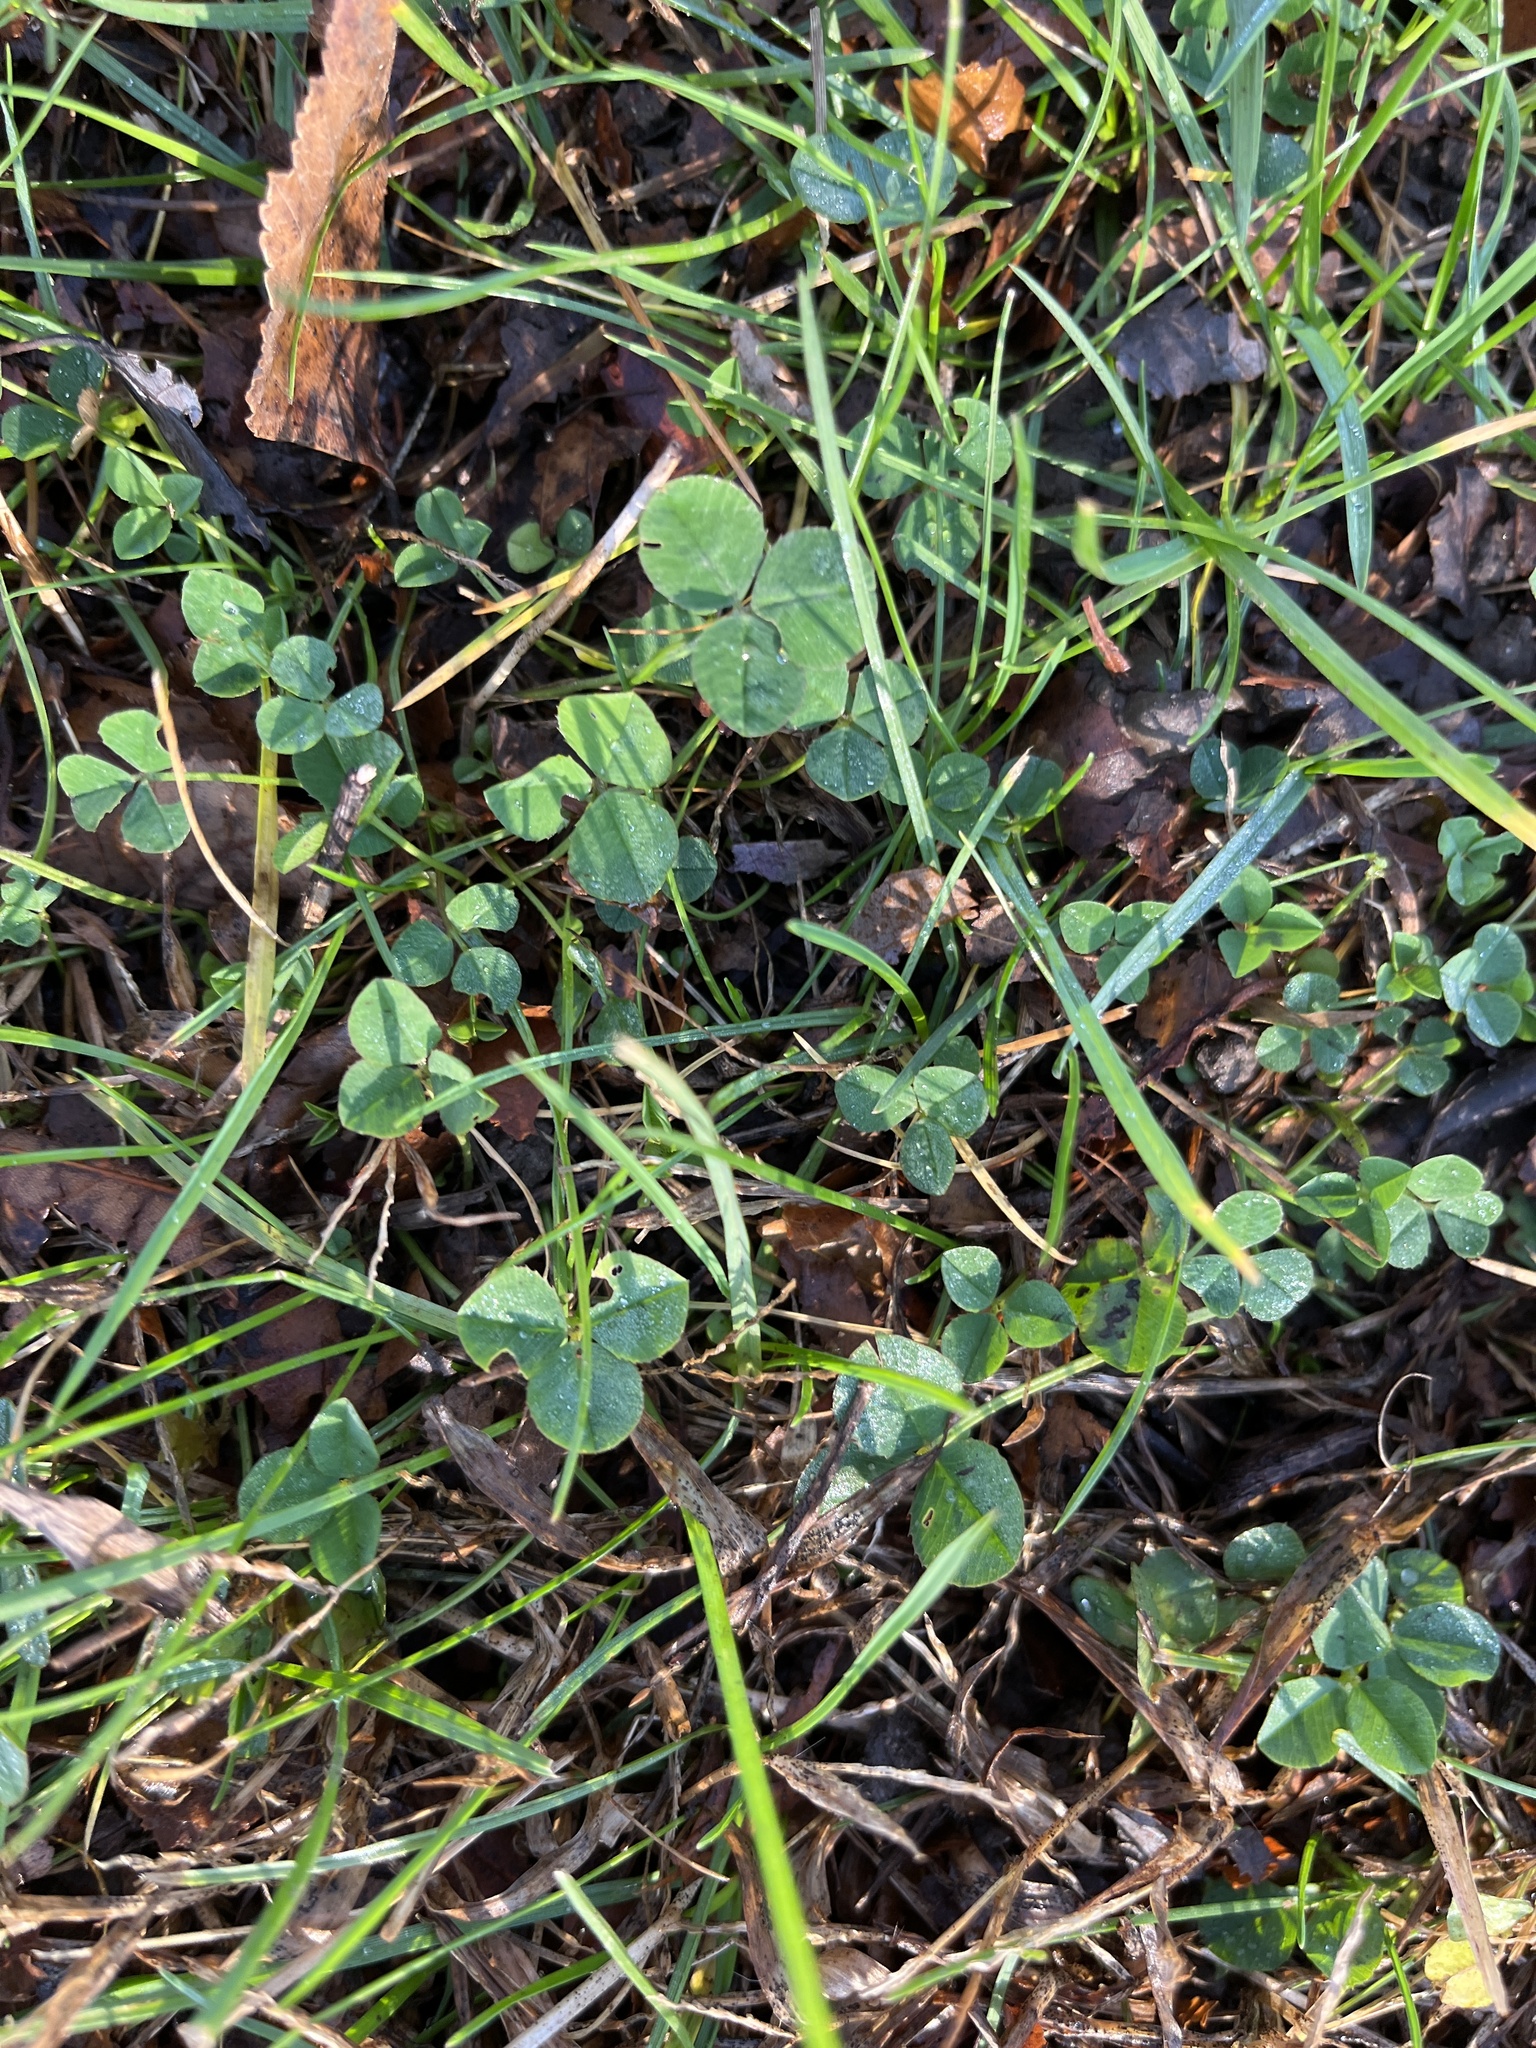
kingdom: Plantae
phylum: Tracheophyta
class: Magnoliopsida
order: Fabales
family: Fabaceae
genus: Trifolium
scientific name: Trifolium repens
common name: White clover
